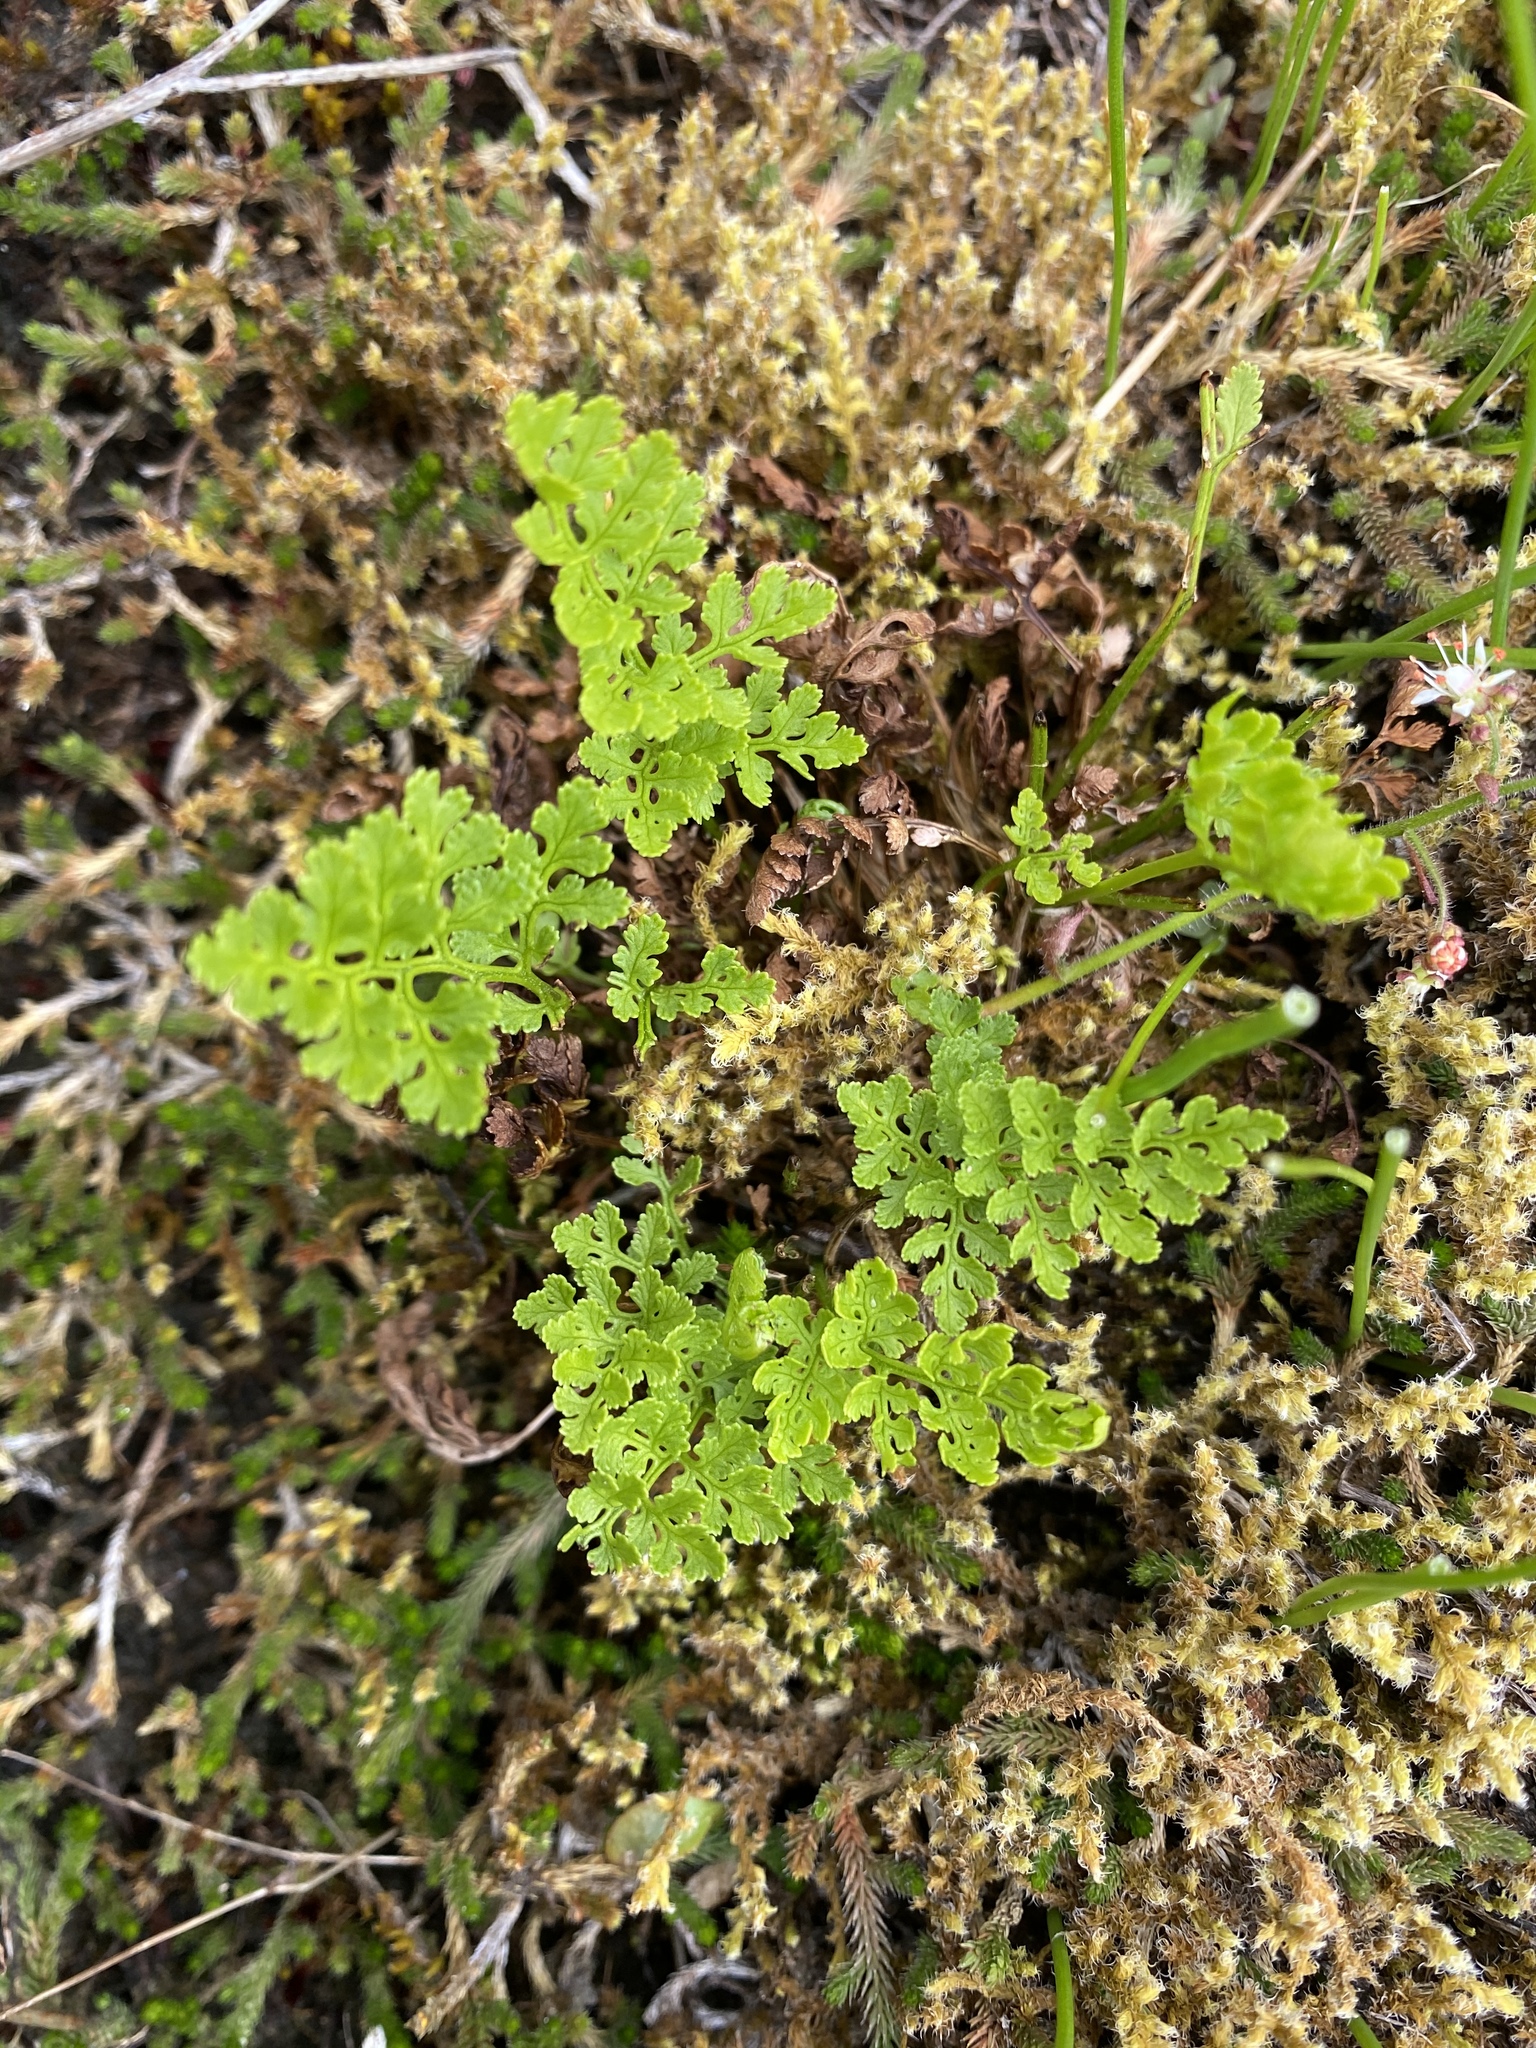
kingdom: Plantae
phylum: Tracheophyta
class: Polypodiopsida
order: Polypodiales
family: Pteridaceae
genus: Cryptogramma
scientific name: Cryptogramma acrostichoides
